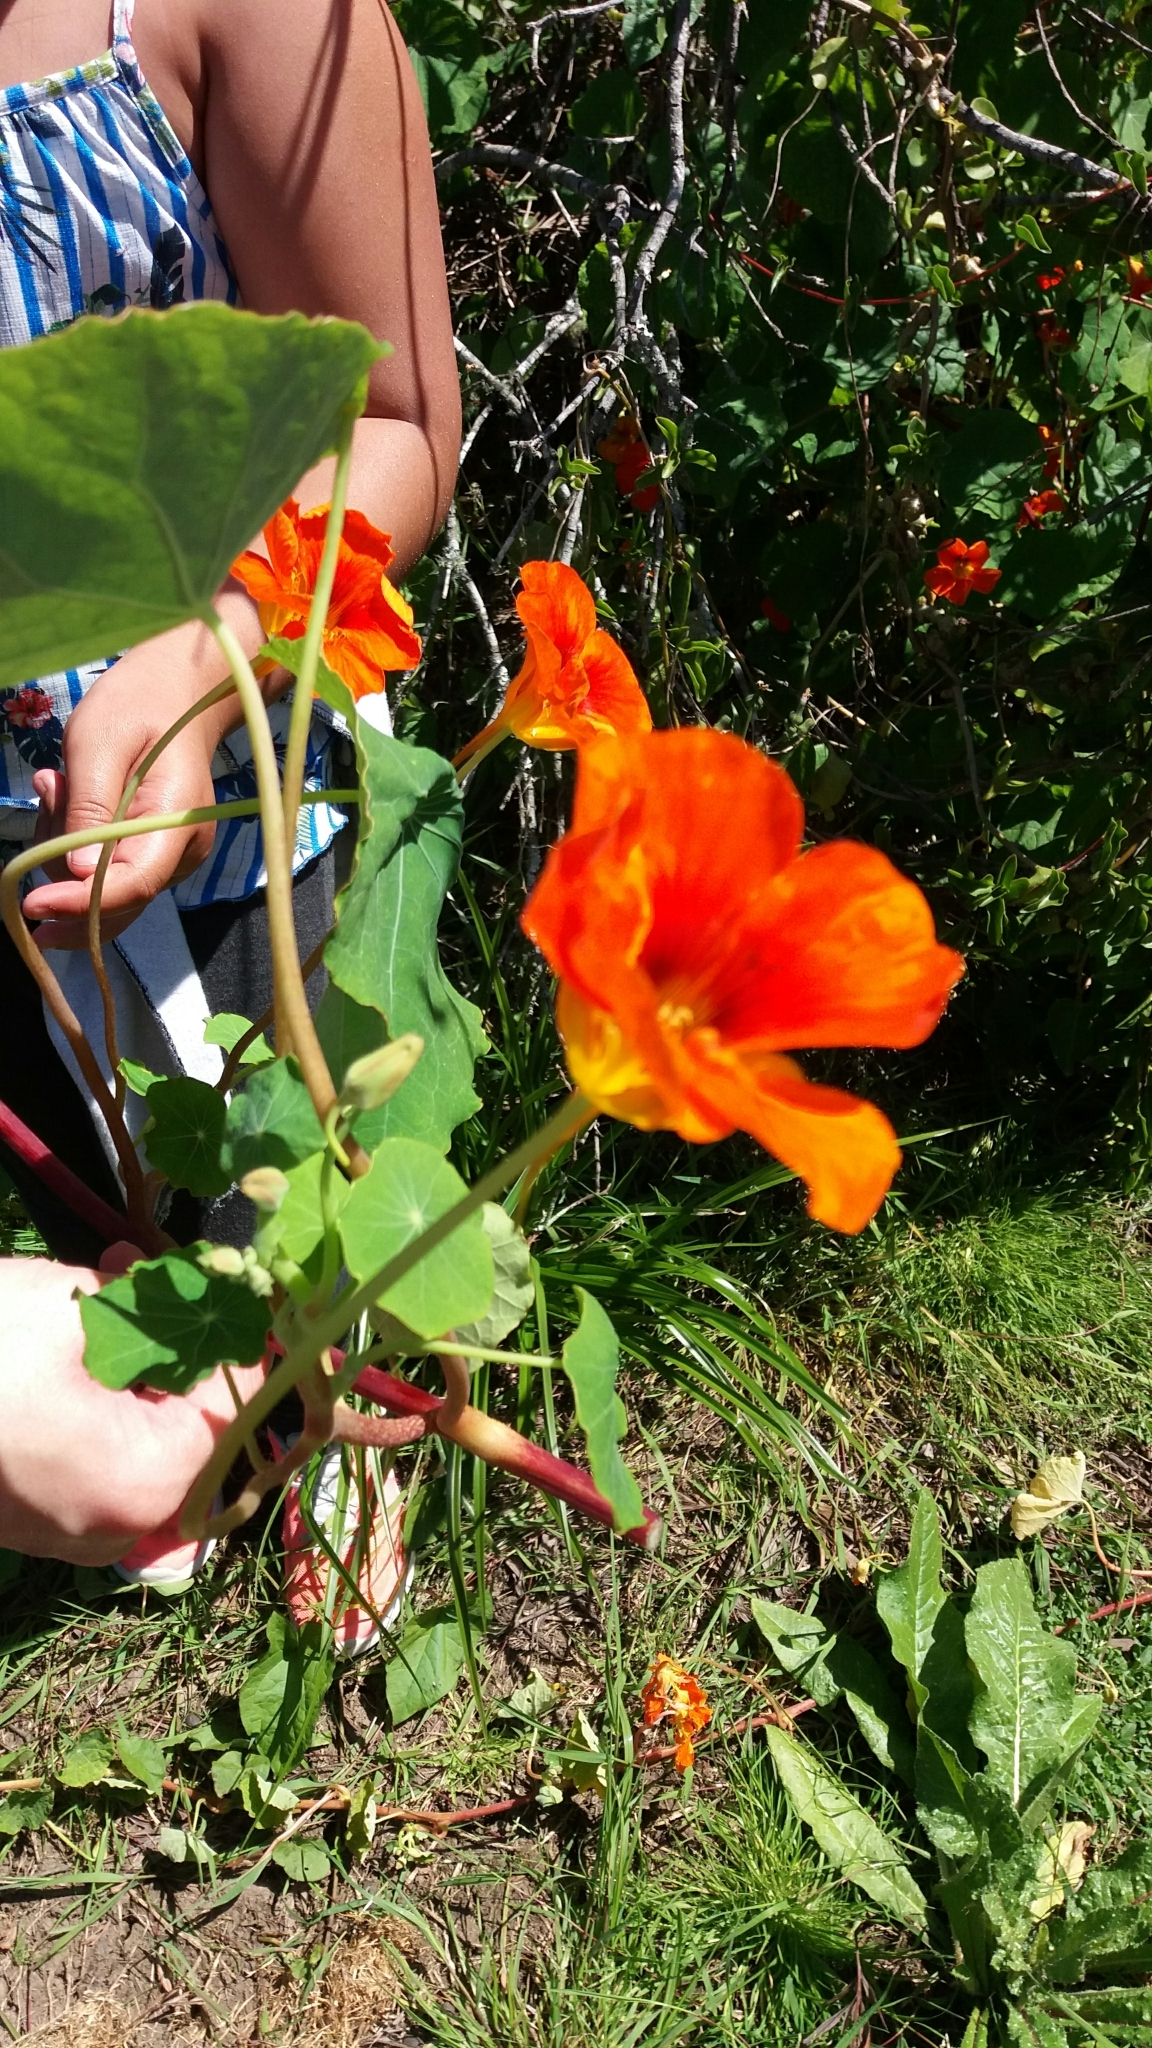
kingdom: Plantae
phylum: Tracheophyta
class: Magnoliopsida
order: Brassicales
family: Tropaeolaceae
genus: Tropaeolum
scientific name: Tropaeolum majus
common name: Nasturtium
